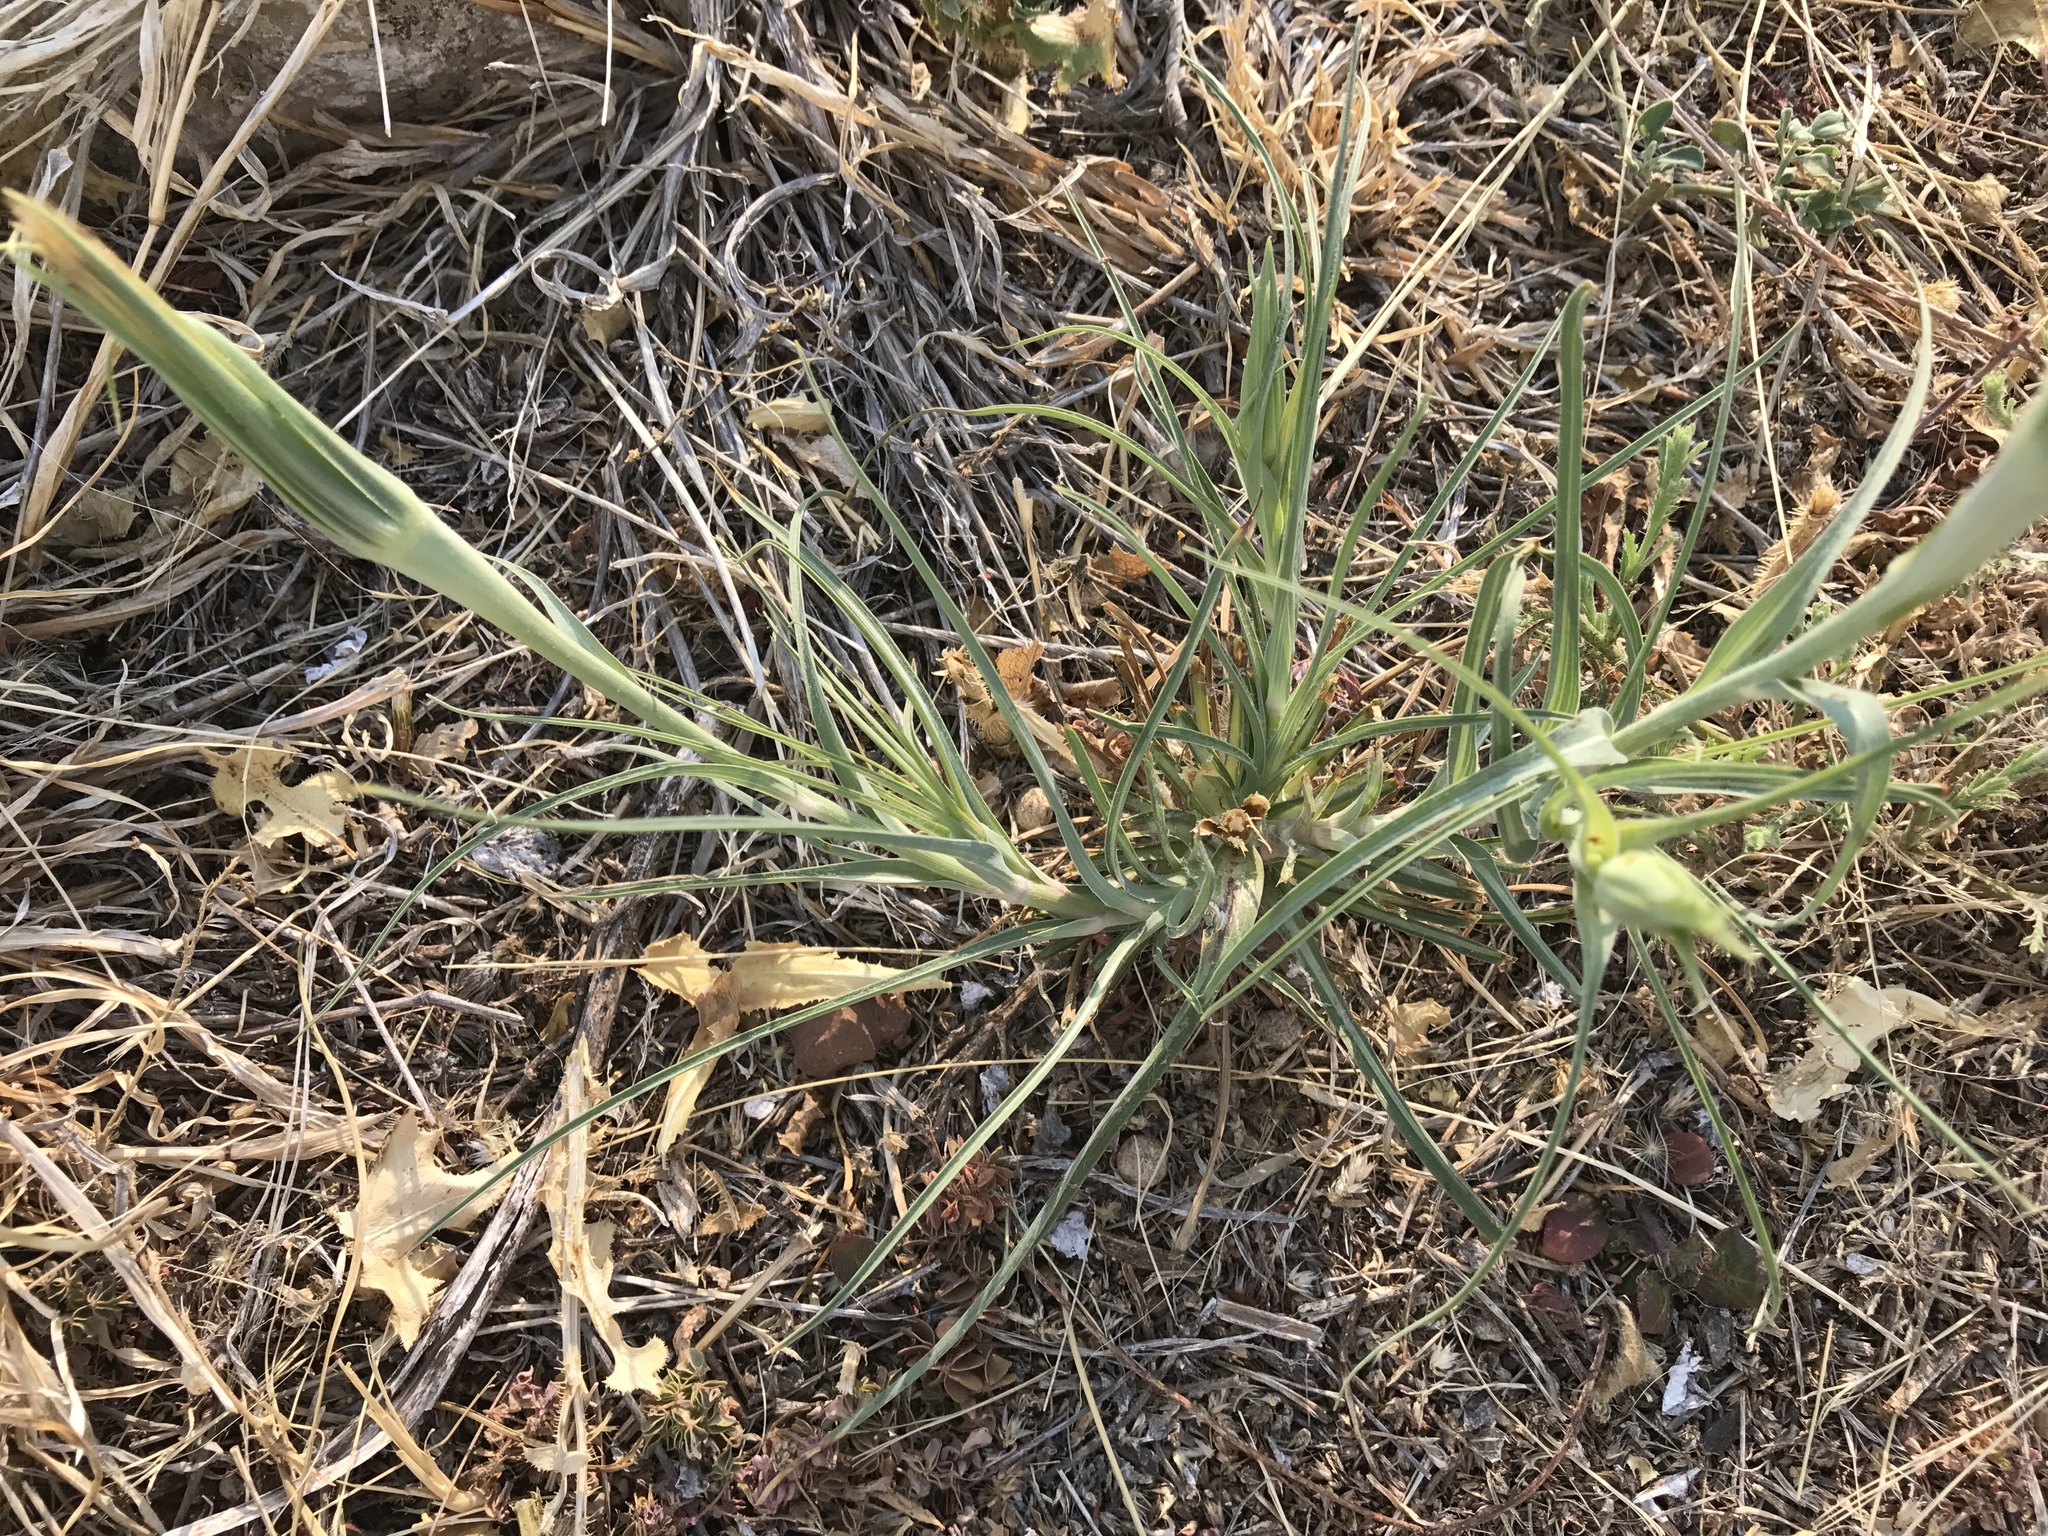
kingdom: Plantae
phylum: Tracheophyta
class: Magnoliopsida
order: Asterales
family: Asteraceae
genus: Tragopogon
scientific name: Tragopogon pratensis
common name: Goat's-beard
